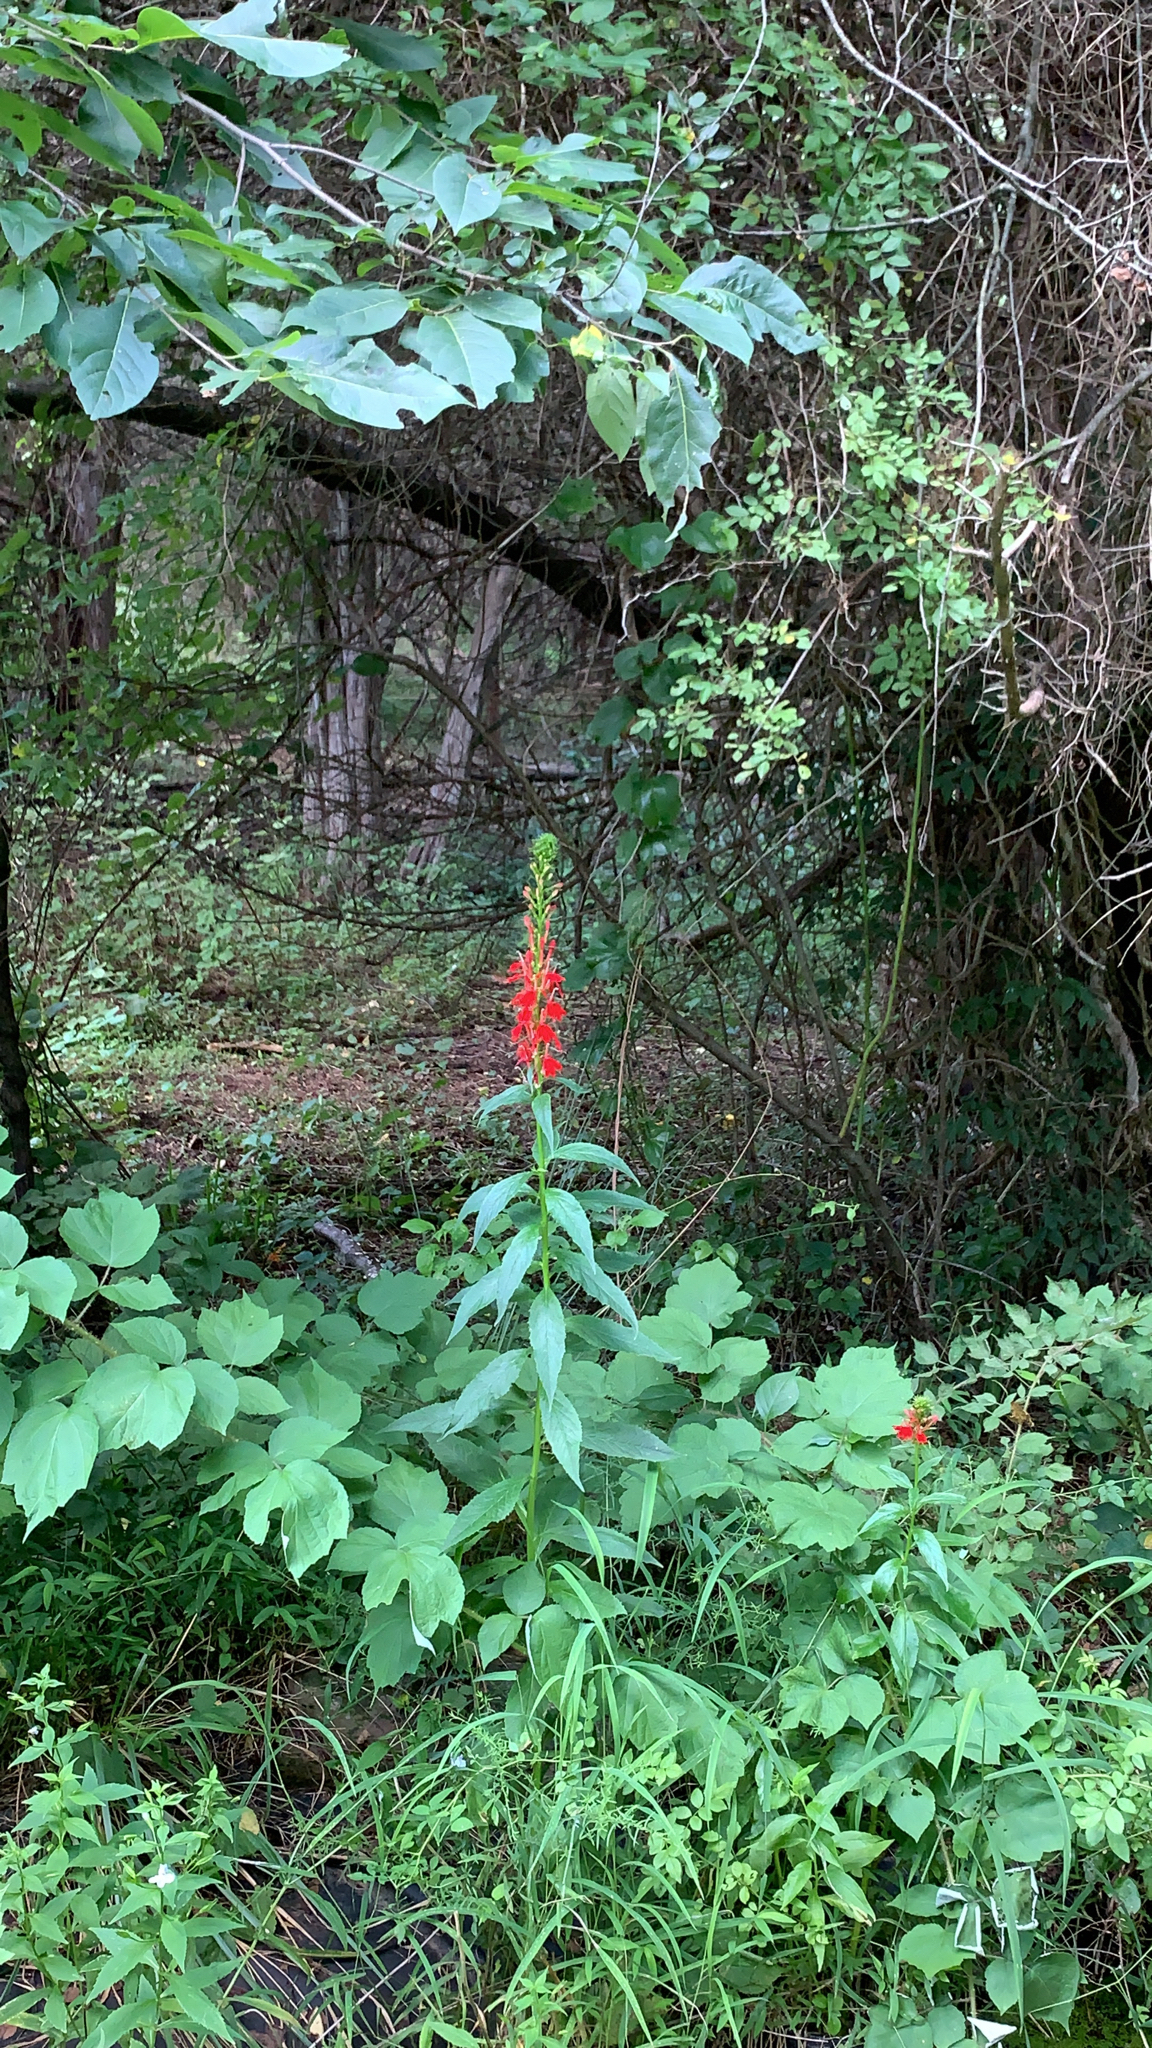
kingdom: Plantae
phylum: Tracheophyta
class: Magnoliopsida
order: Asterales
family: Campanulaceae
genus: Lobelia
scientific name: Lobelia cardinalis
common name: Cardinal flower
